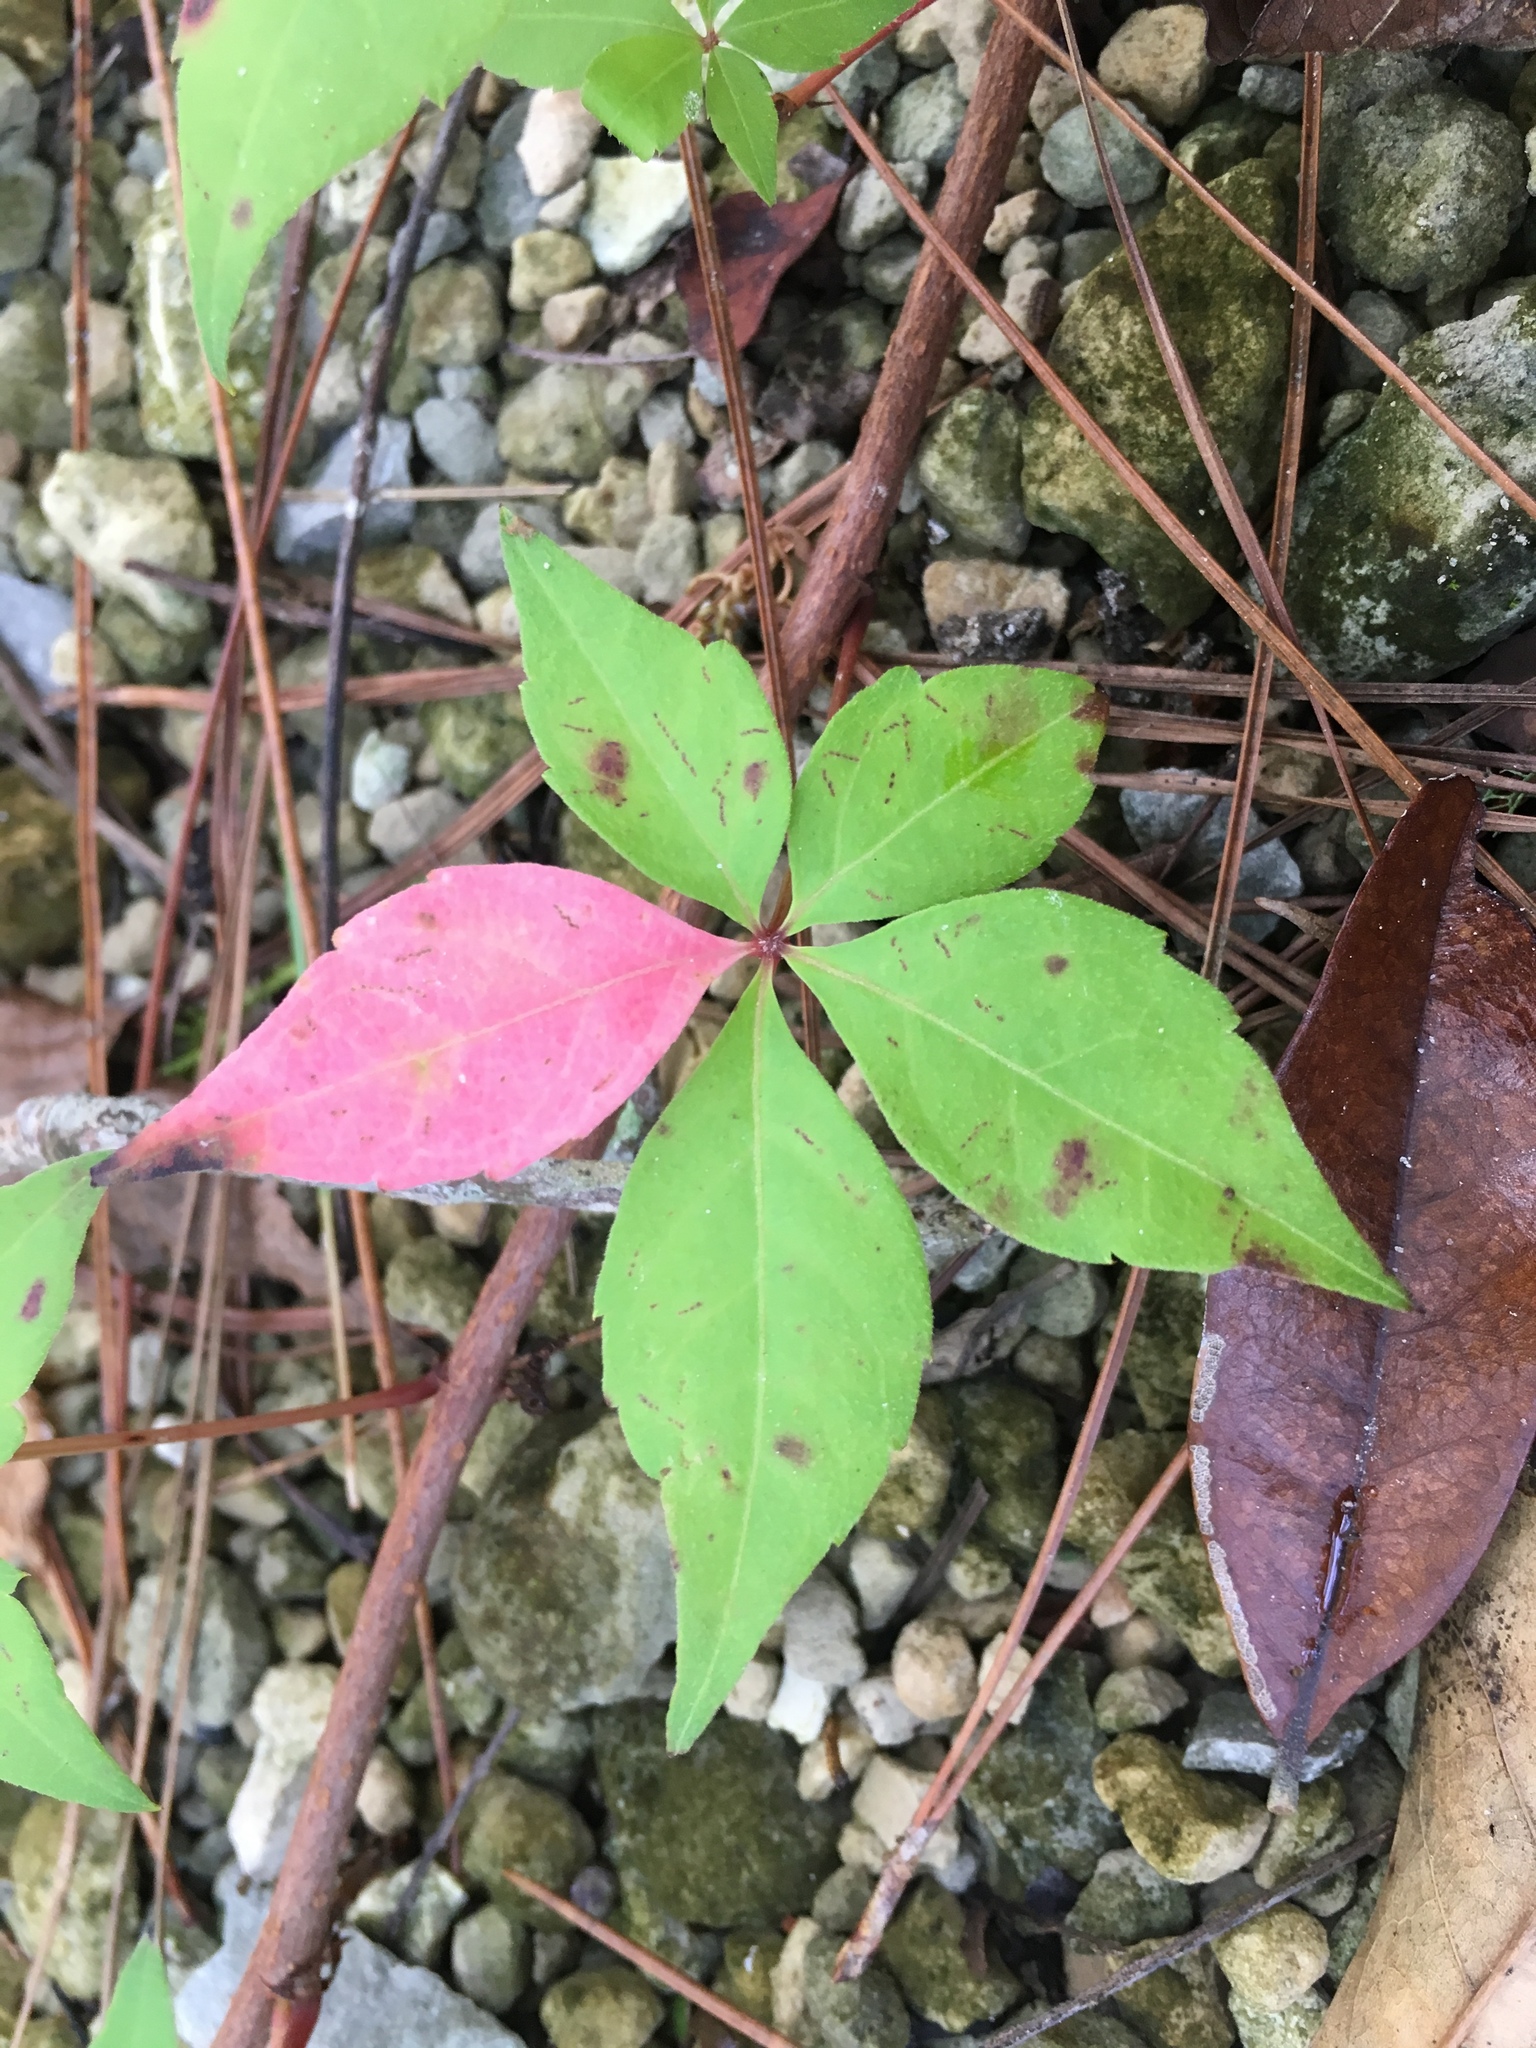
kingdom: Plantae
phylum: Tracheophyta
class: Magnoliopsida
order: Vitales
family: Vitaceae
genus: Parthenocissus
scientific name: Parthenocissus quinquefolia
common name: Virginia-creeper
